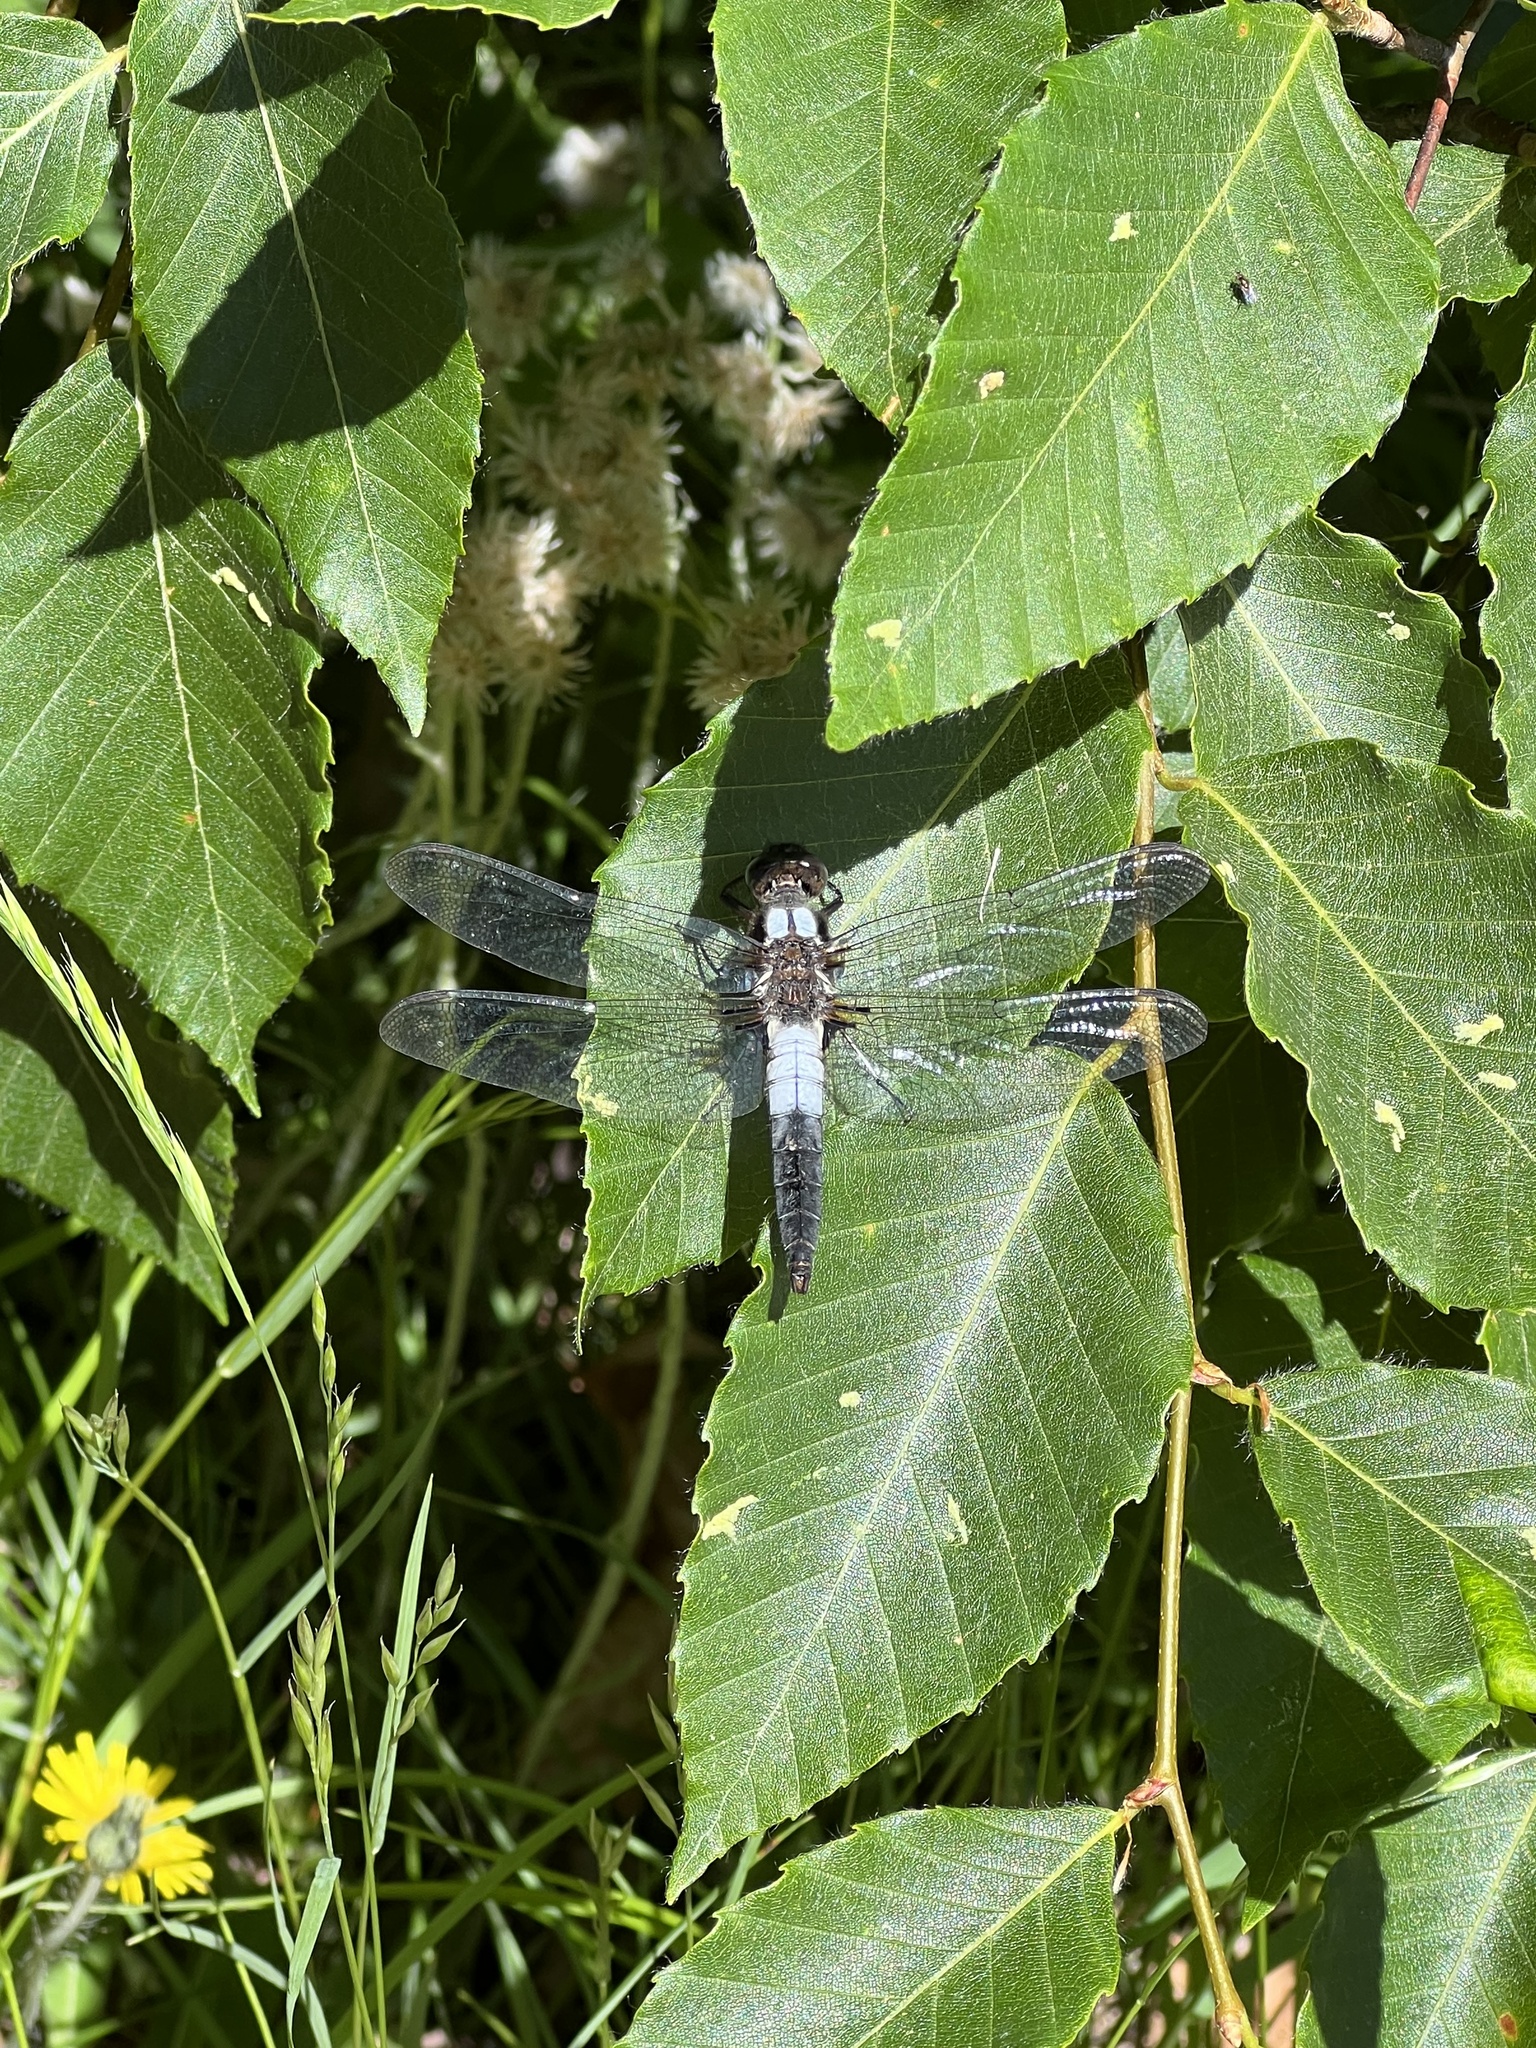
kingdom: Animalia
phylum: Arthropoda
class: Insecta
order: Odonata
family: Libellulidae
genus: Ladona
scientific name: Ladona julia
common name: Chalk-fronted corporal
